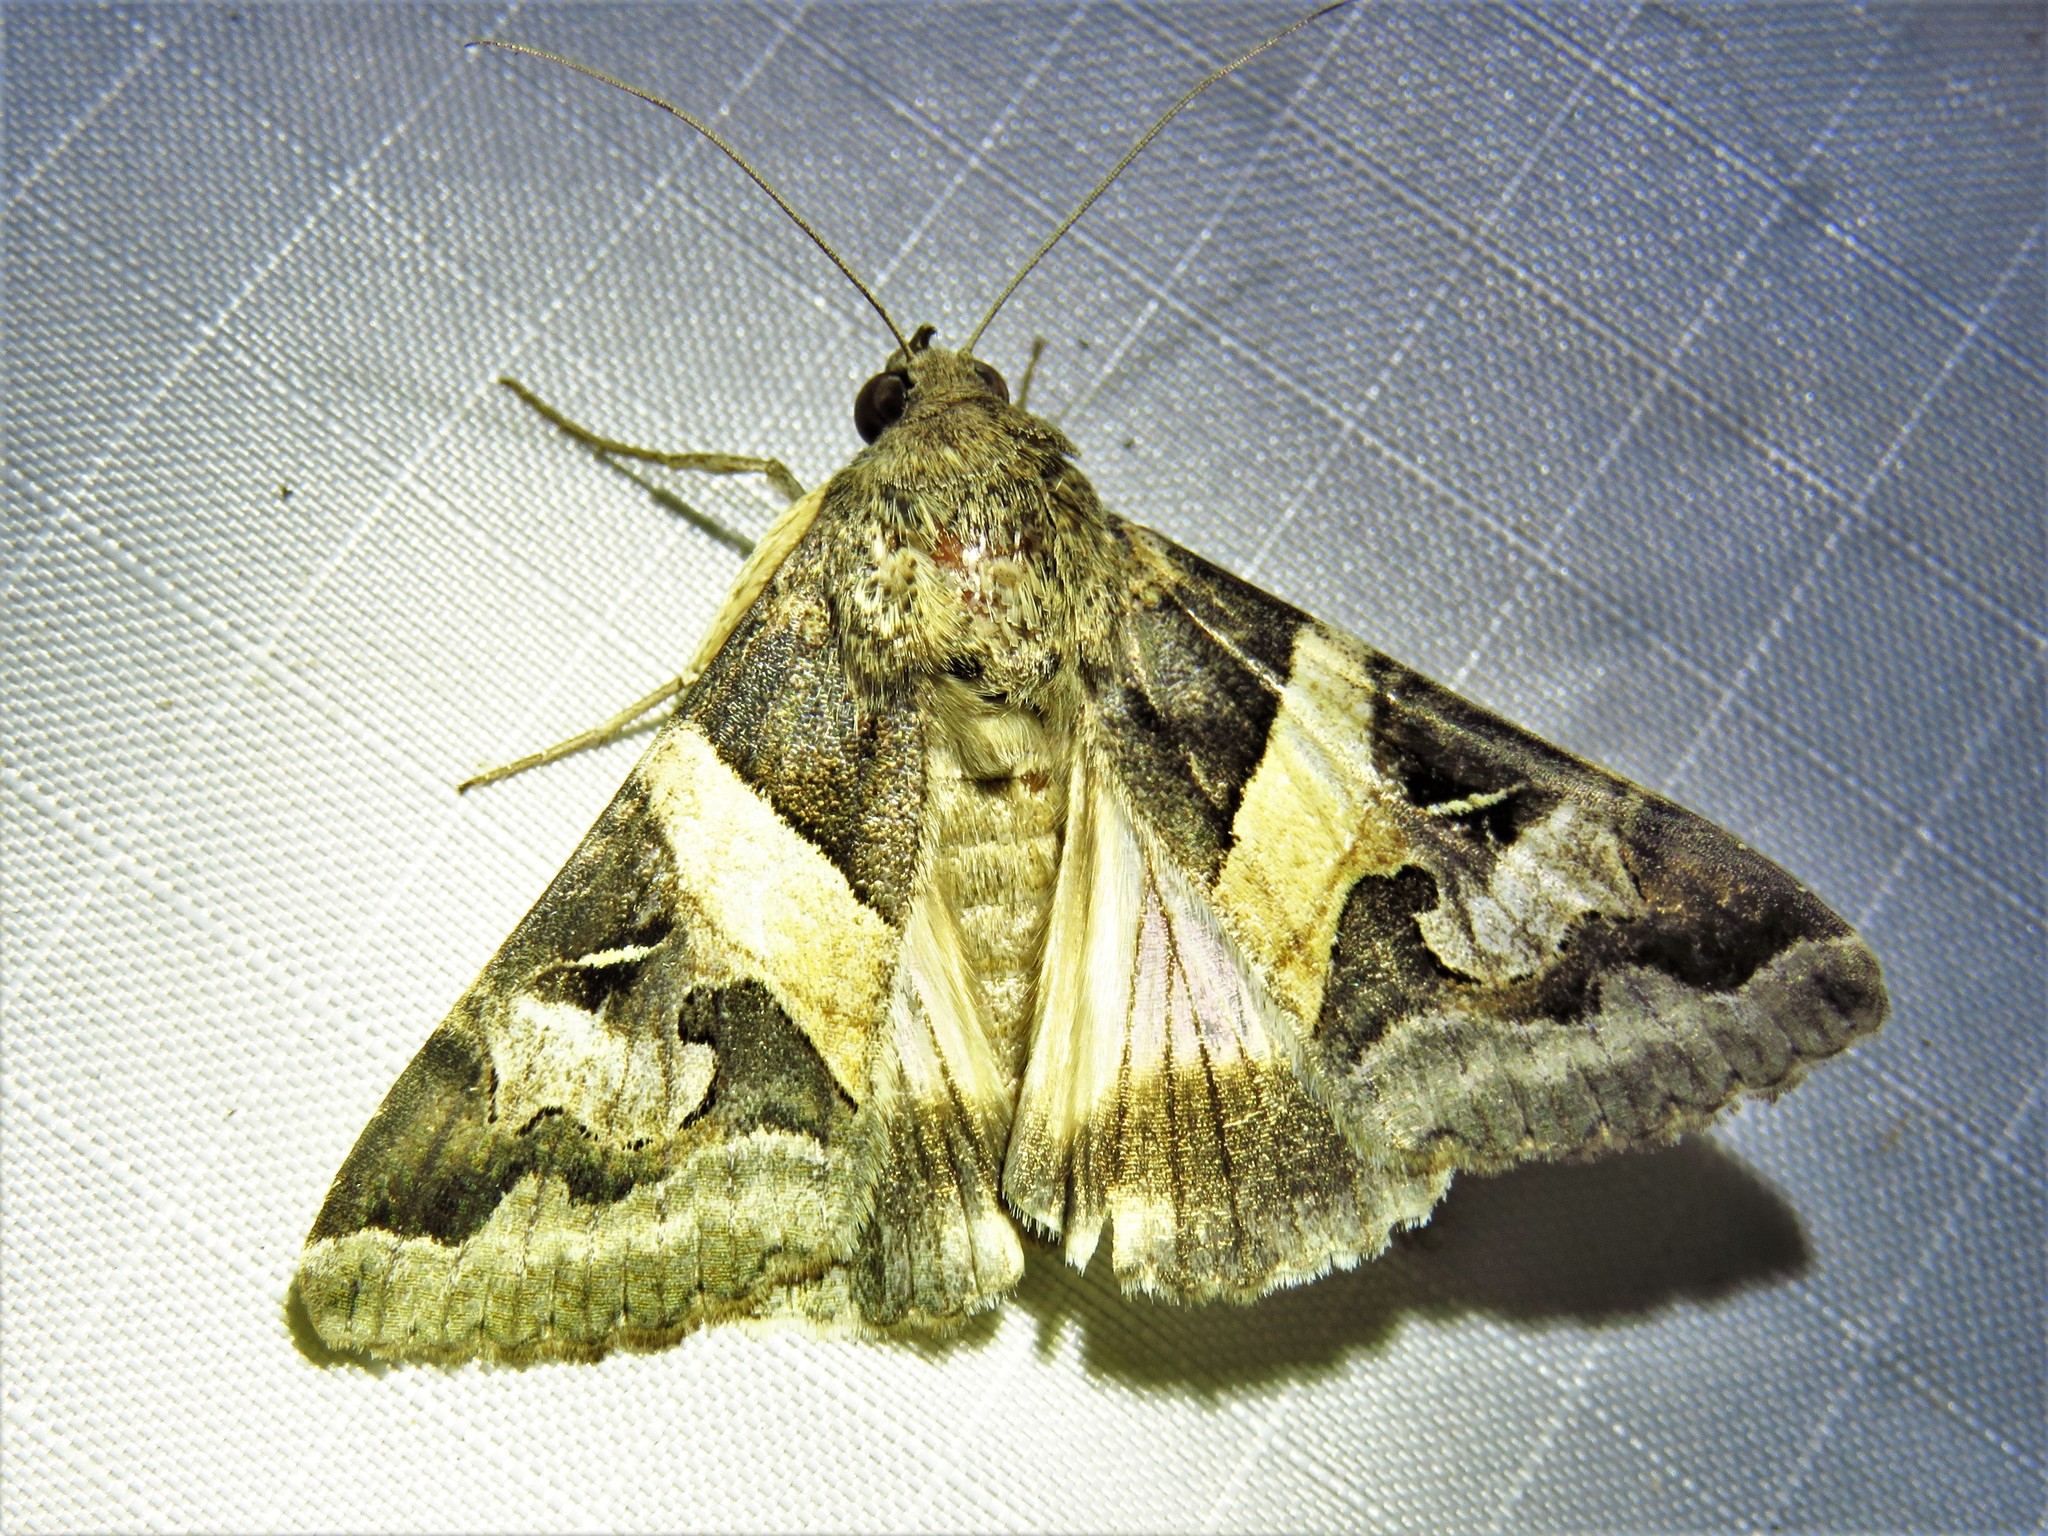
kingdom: Animalia
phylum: Arthropoda
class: Insecta
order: Lepidoptera
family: Erebidae
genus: Melipotis
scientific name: Melipotis indomita
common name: Moth
